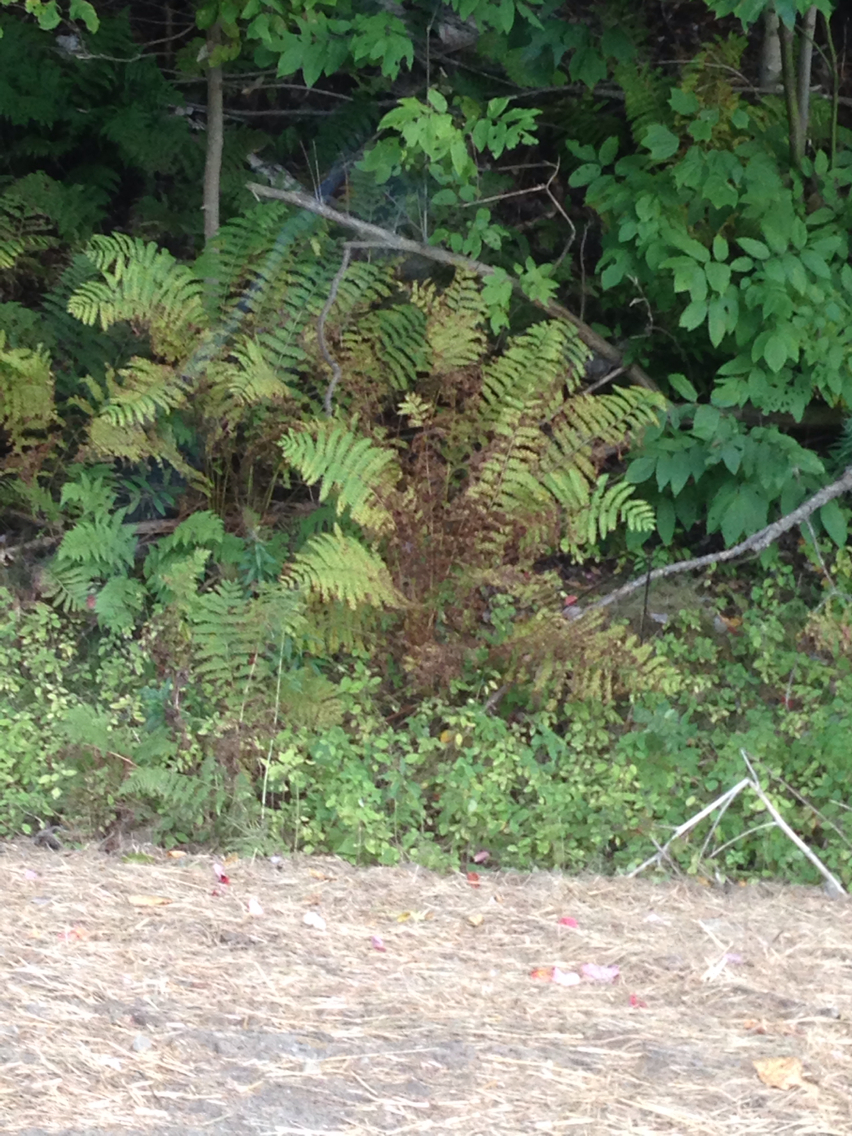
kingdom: Plantae
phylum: Tracheophyta
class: Polypodiopsida
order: Polypodiales
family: Onocleaceae
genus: Matteuccia
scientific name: Matteuccia struthiopteris
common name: Ostrich fern
